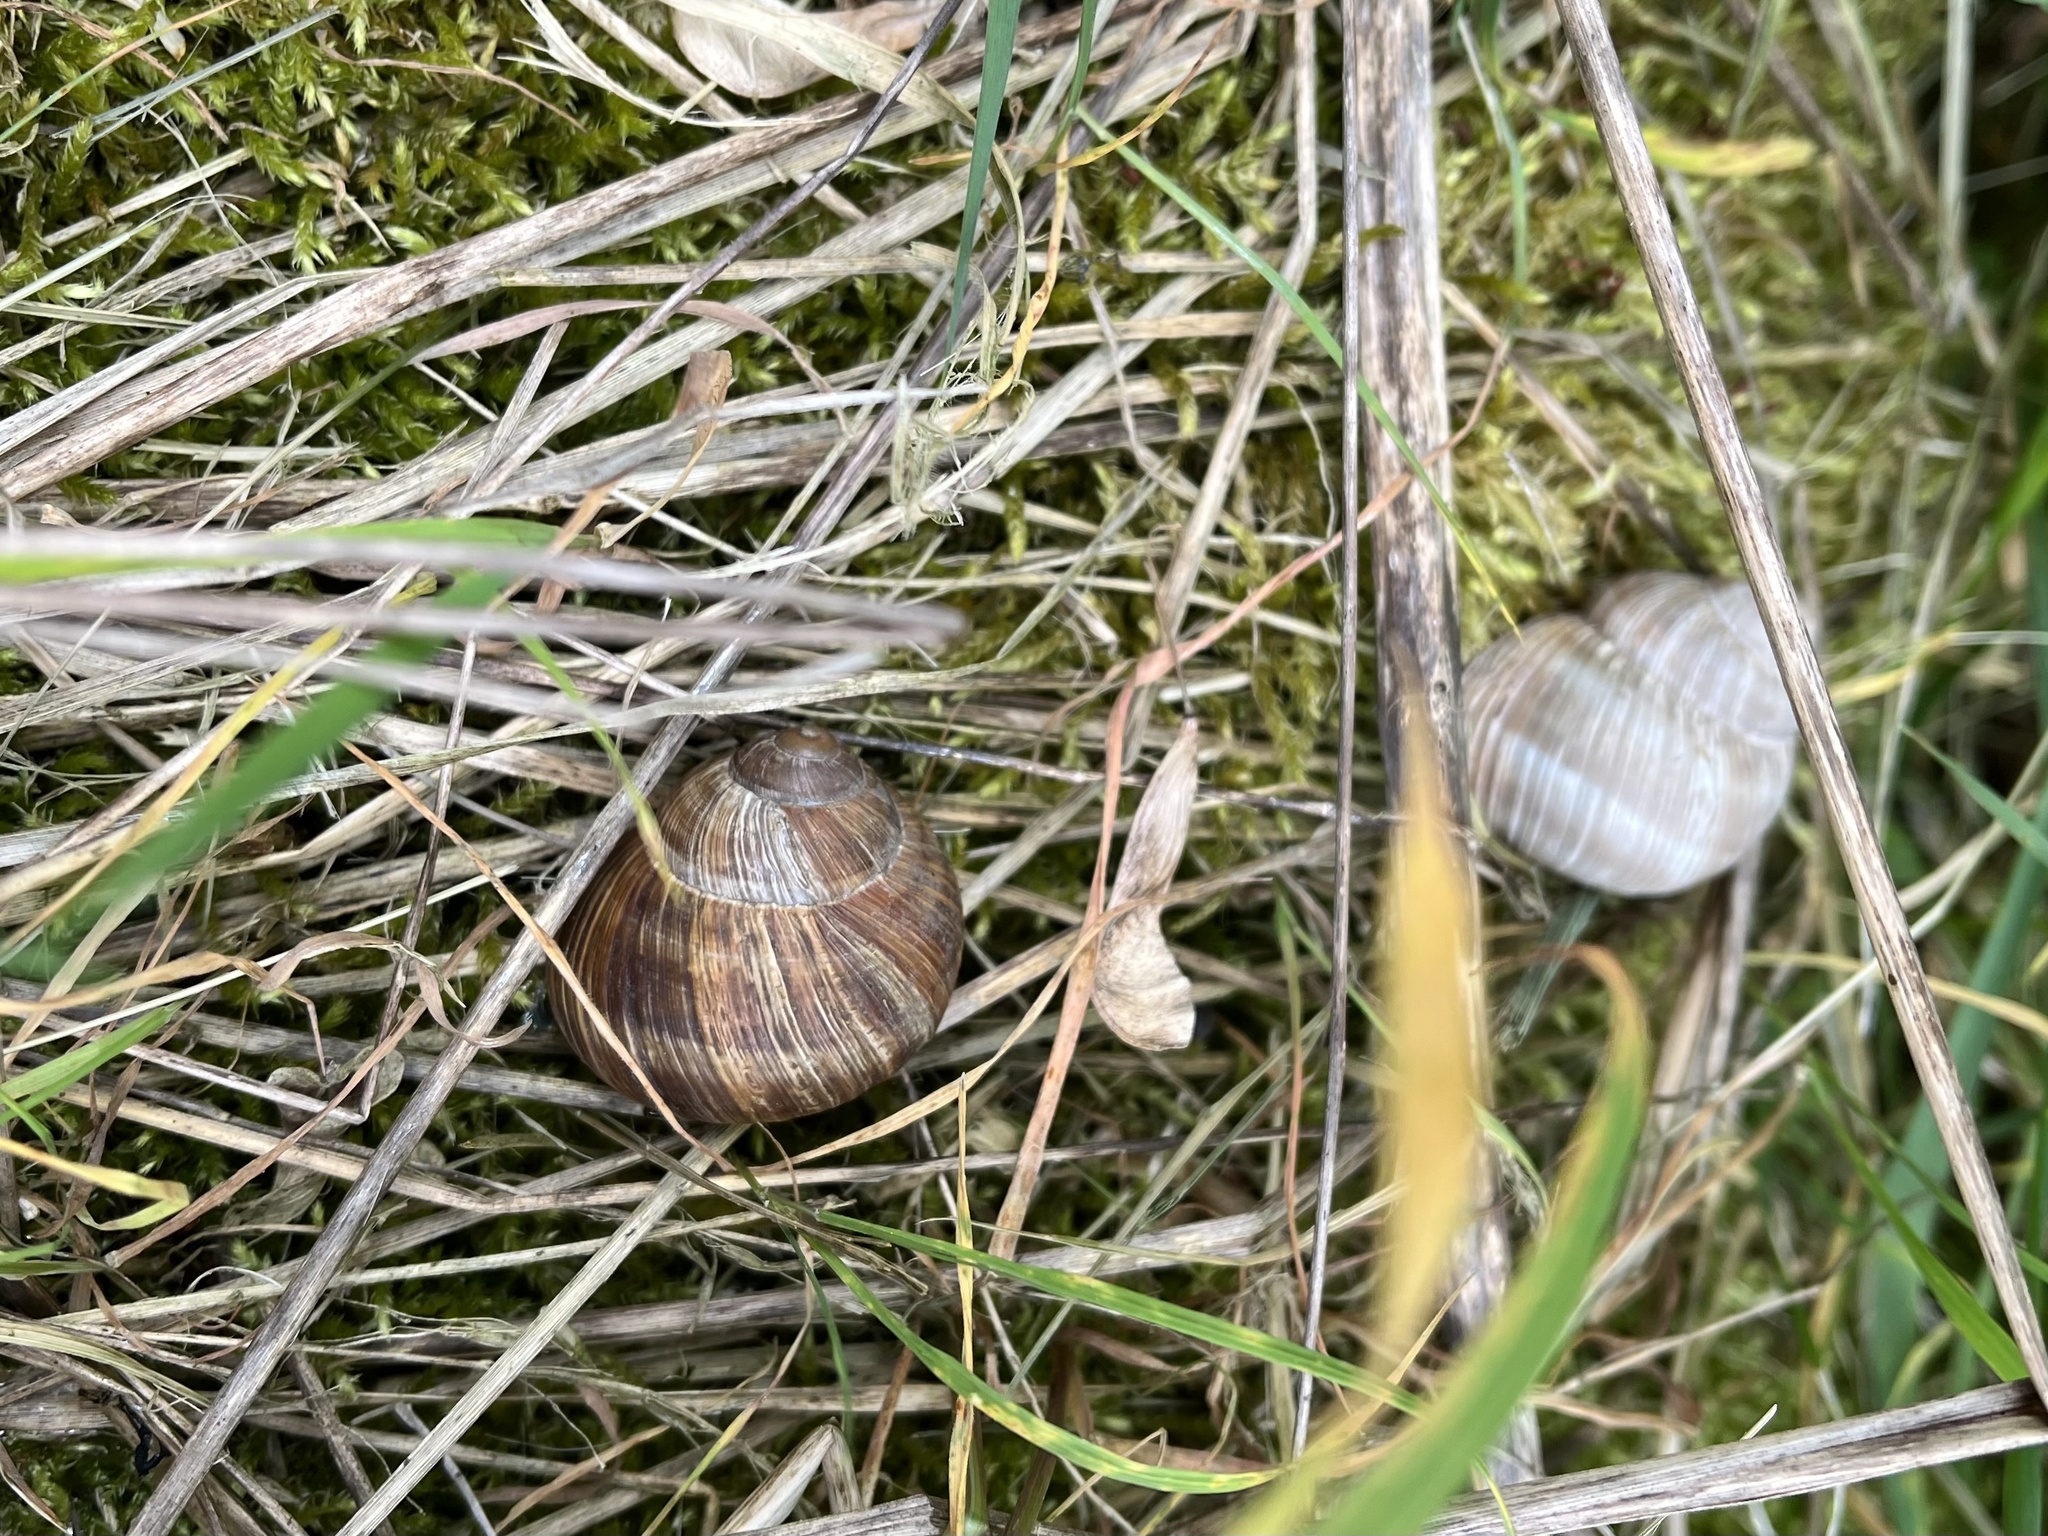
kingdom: Animalia
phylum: Mollusca
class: Gastropoda
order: Stylommatophora
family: Helicidae
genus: Helix
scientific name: Helix pomatia
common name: Roman snail
